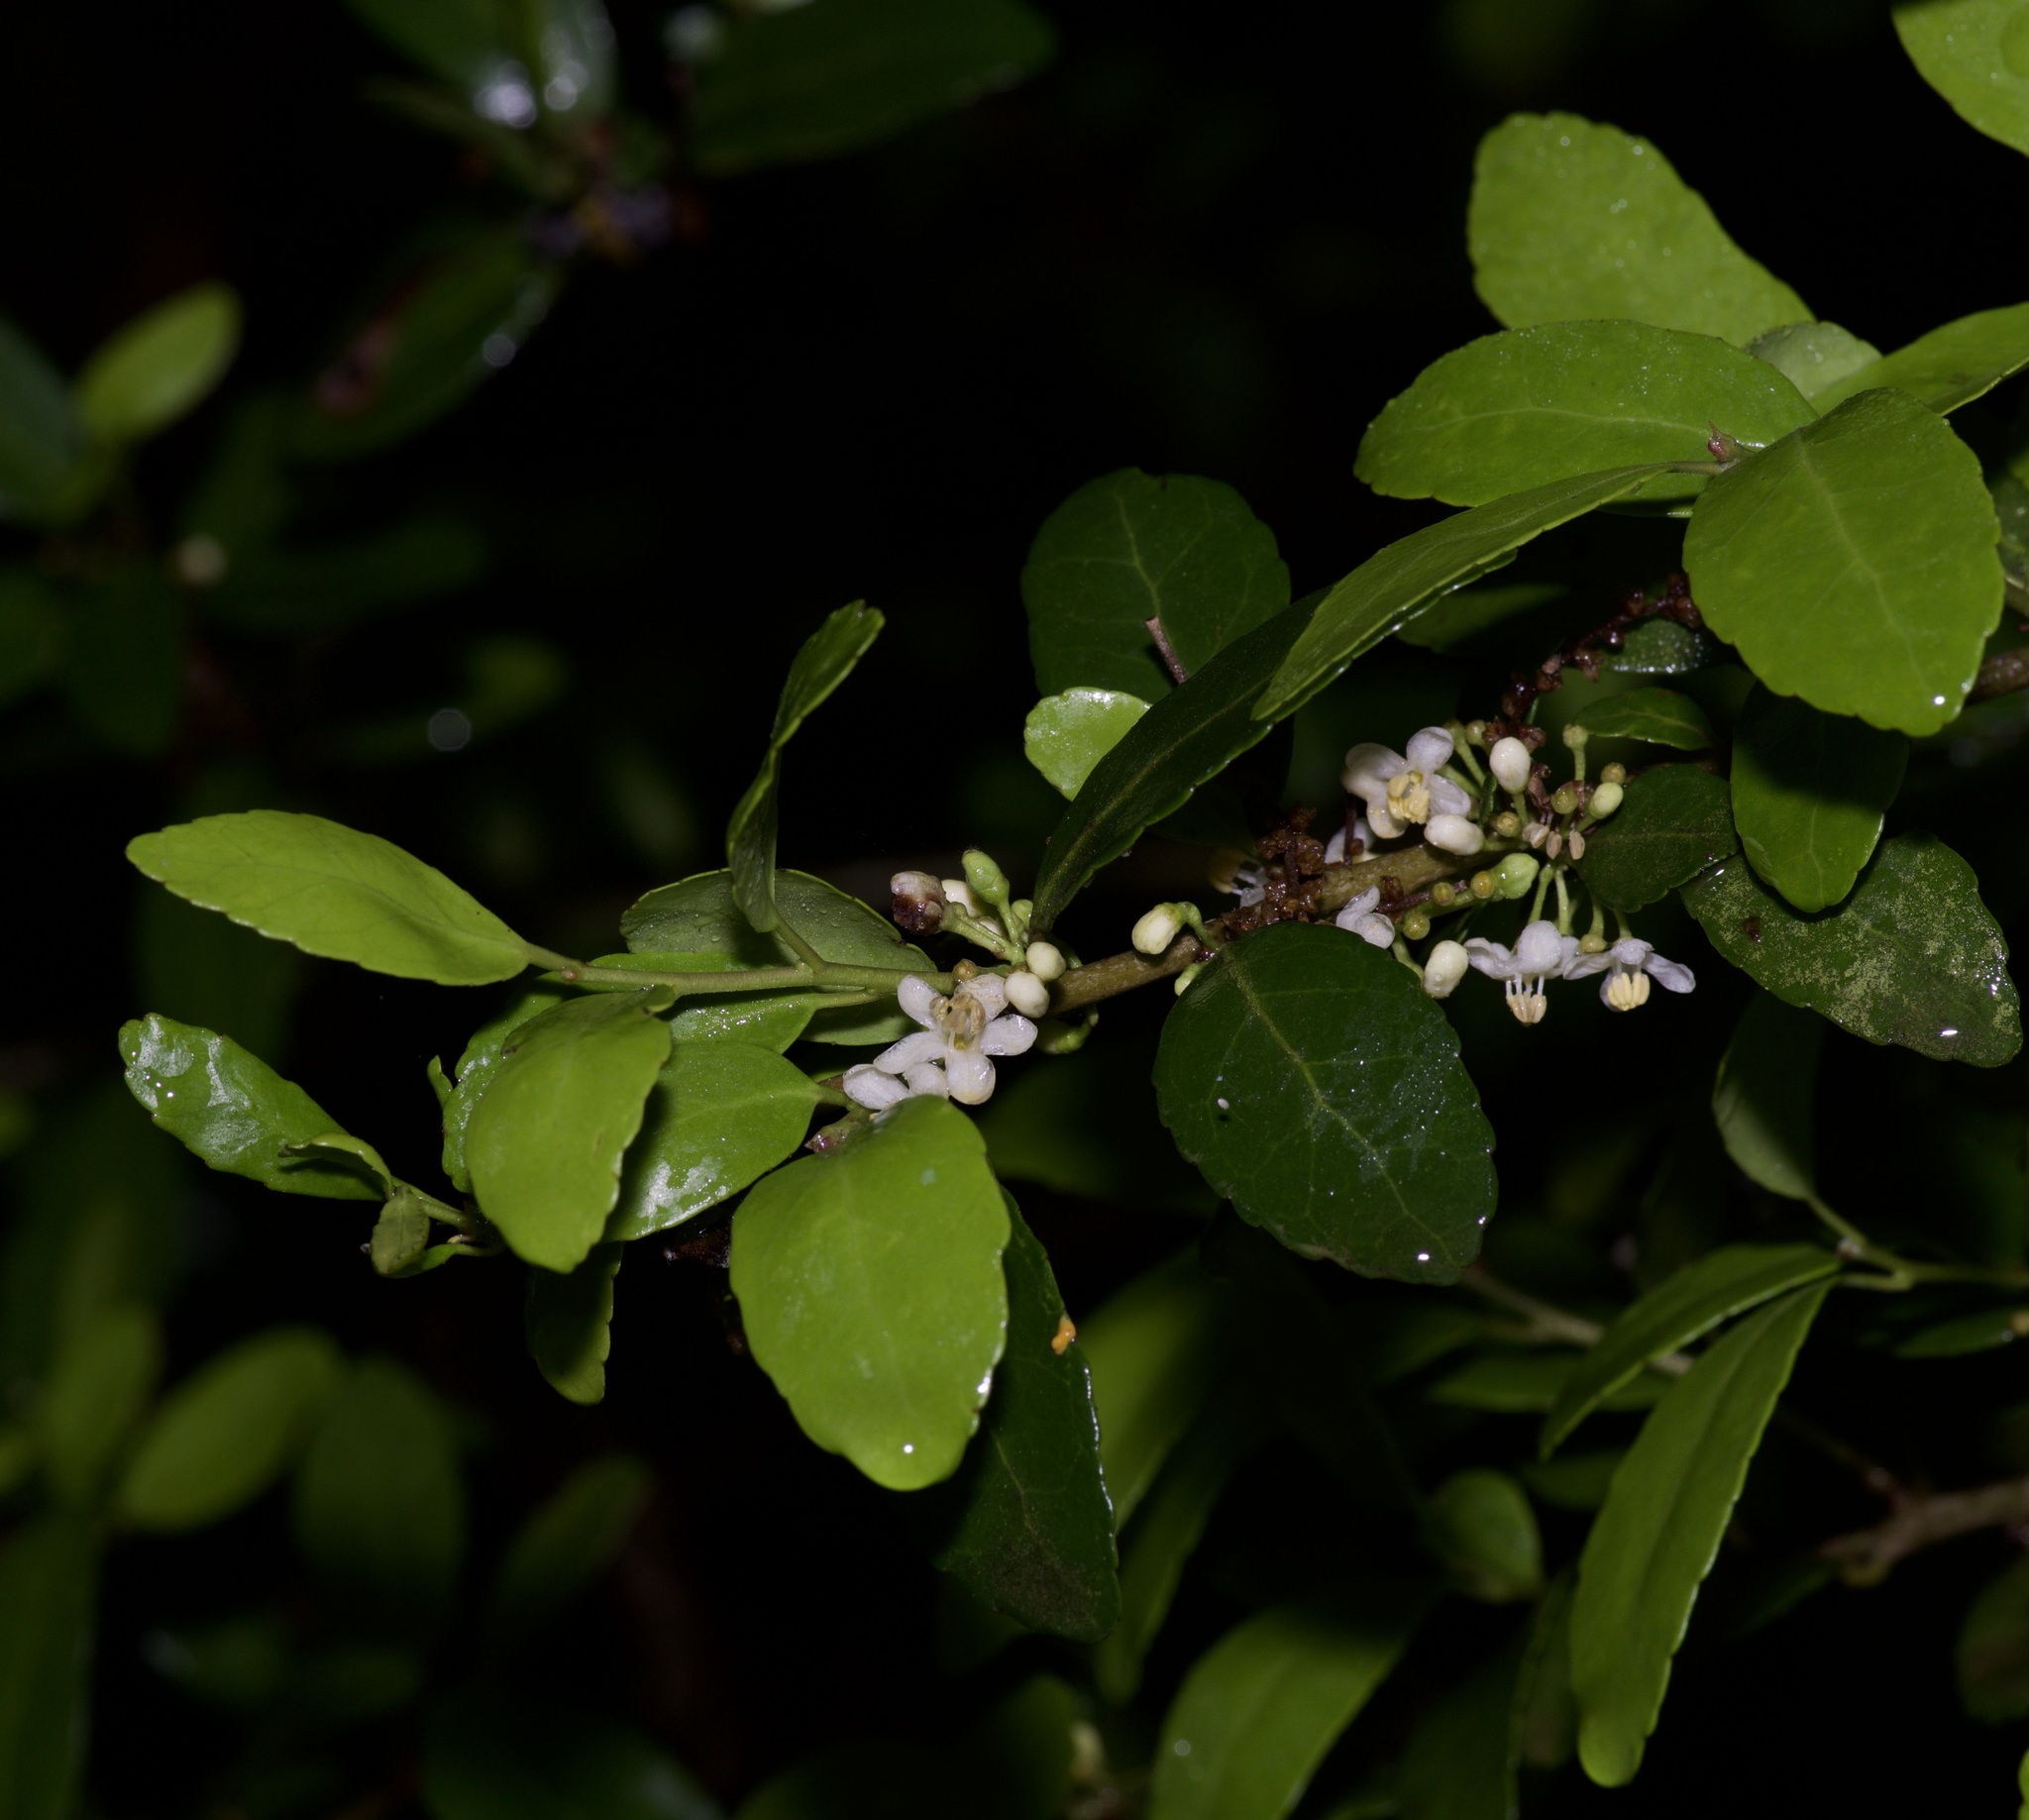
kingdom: Plantae
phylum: Tracheophyta
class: Magnoliopsida
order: Aquifoliales
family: Aquifoliaceae
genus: Ilex
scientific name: Ilex vomitoria
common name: Yaupon holly
